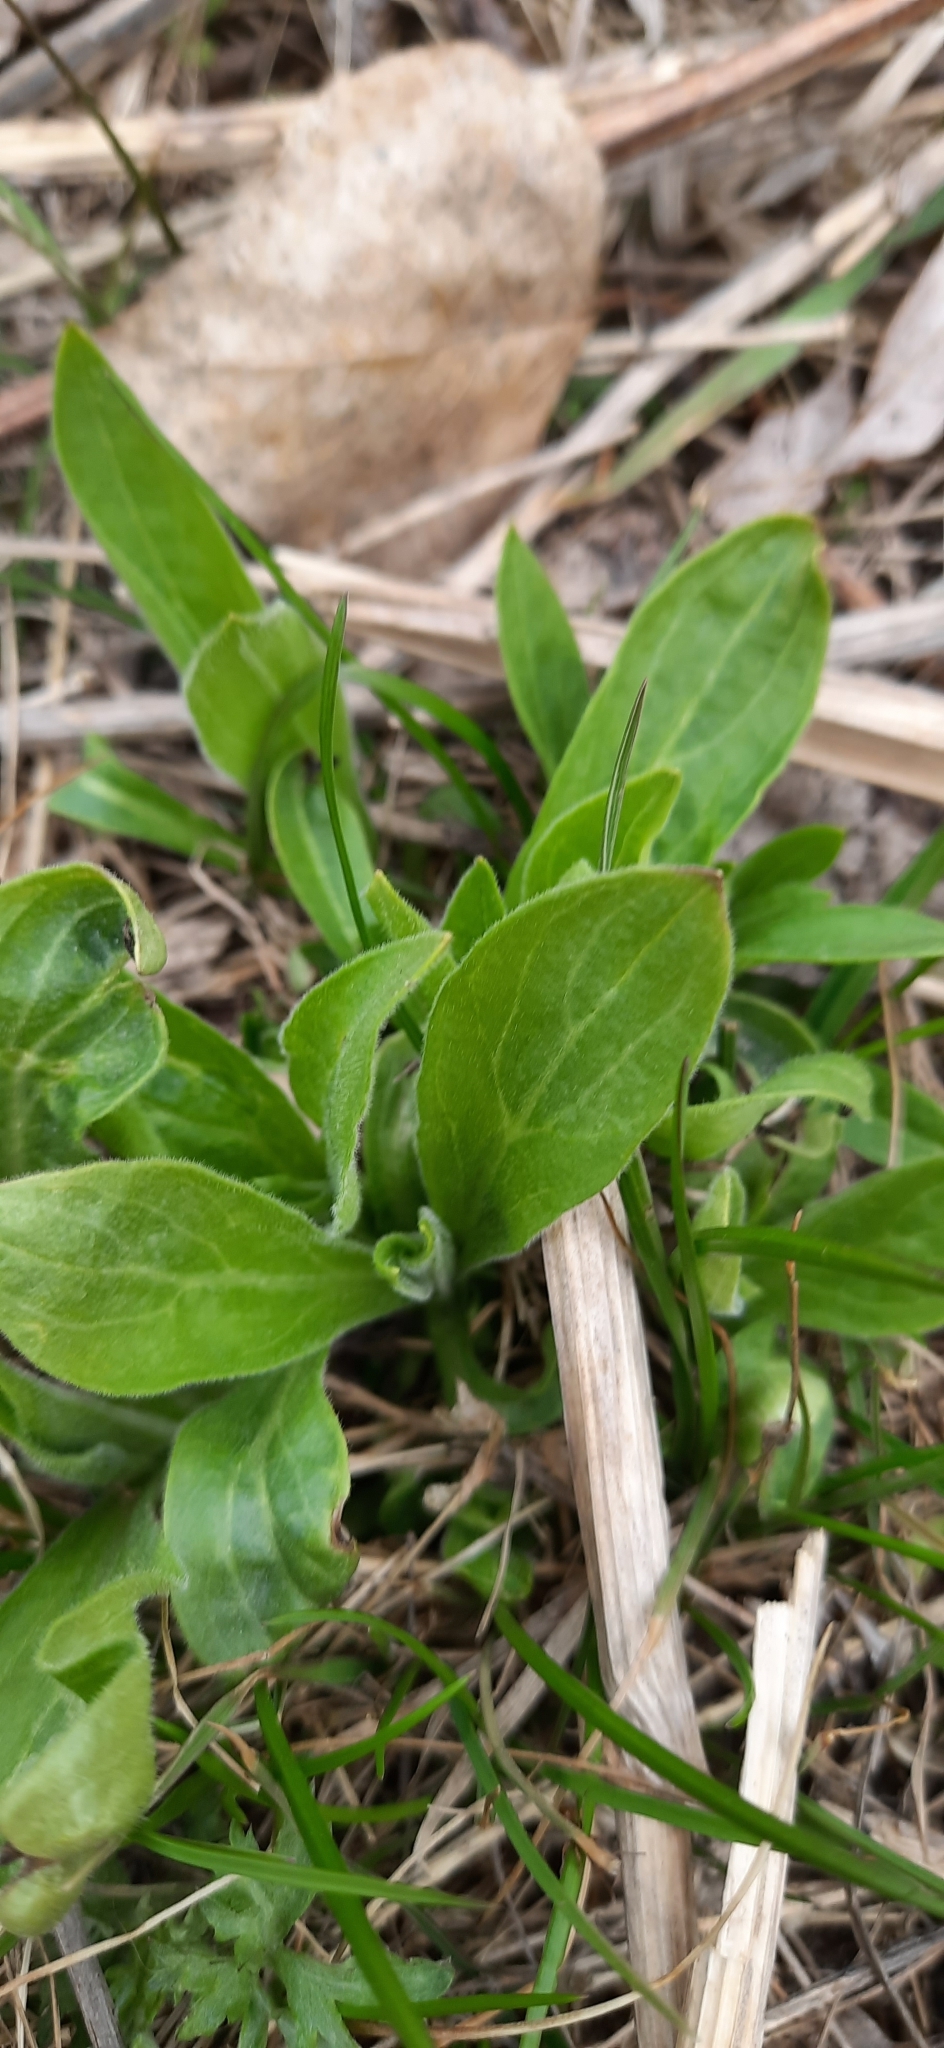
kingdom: Plantae
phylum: Tracheophyta
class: Magnoliopsida
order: Caryophyllales
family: Caryophyllaceae
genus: Silene
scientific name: Silene latifolia
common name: White campion
